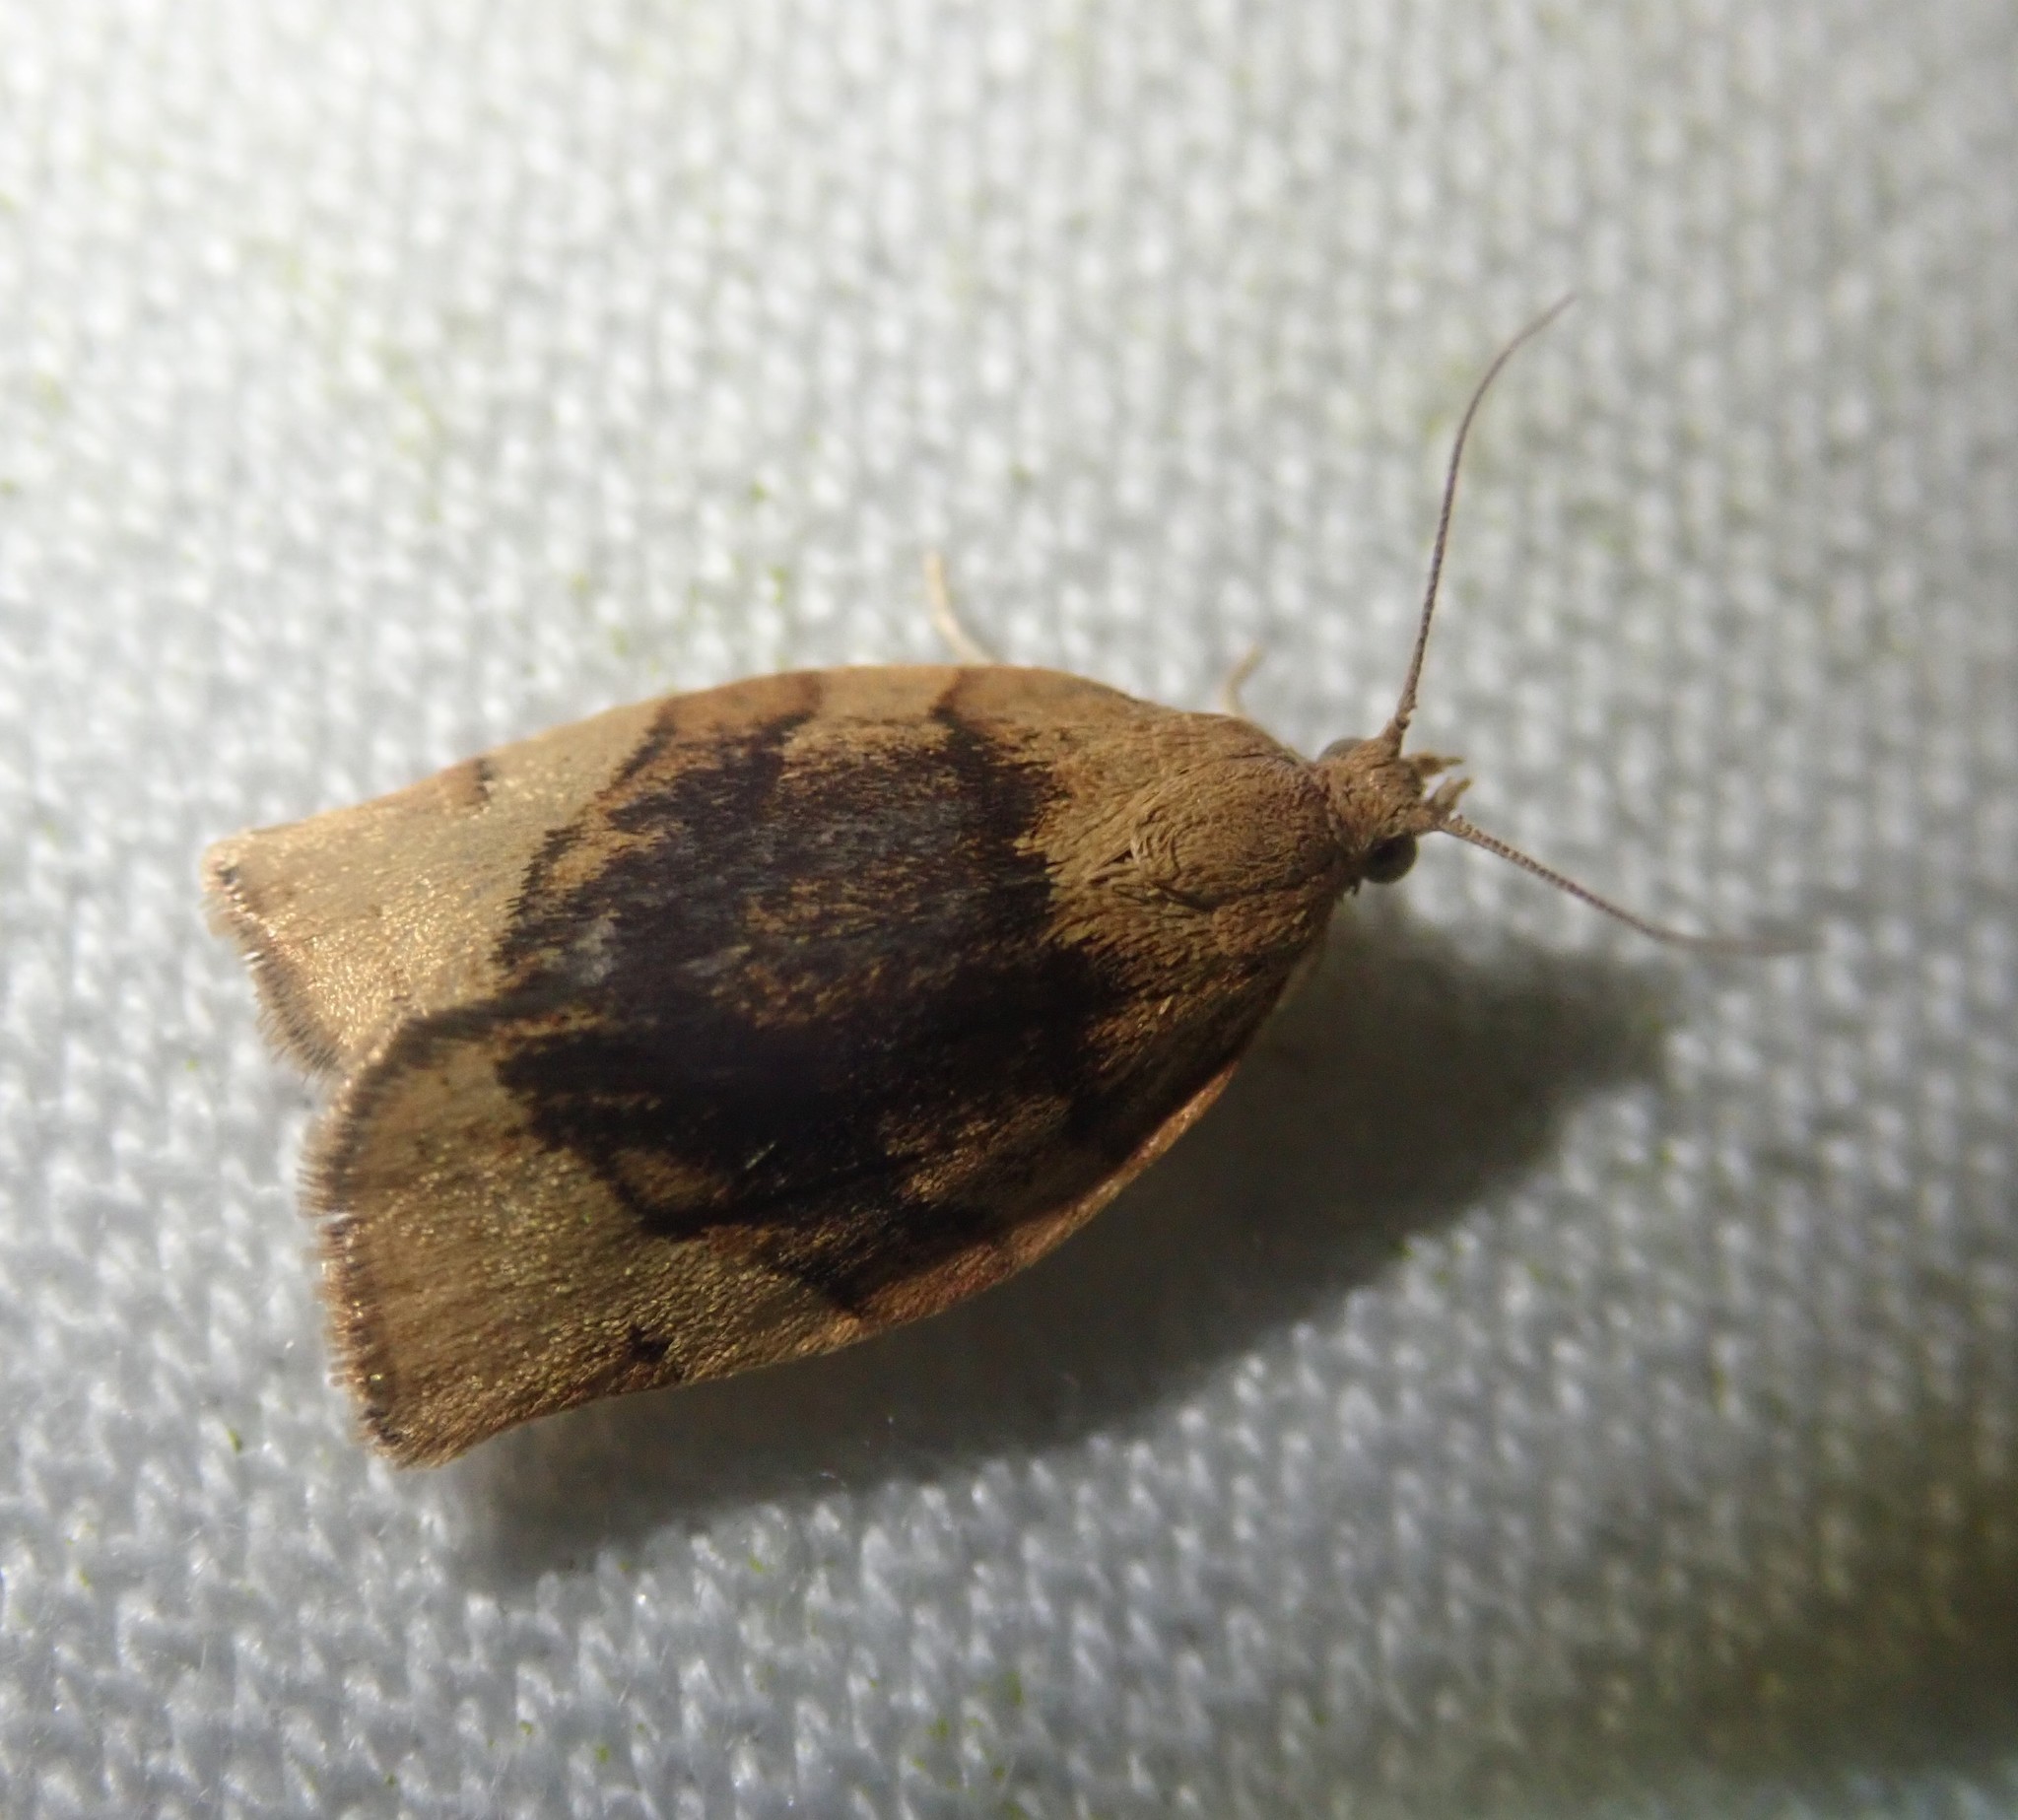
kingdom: Animalia
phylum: Arthropoda
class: Insecta
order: Lepidoptera
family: Tortricidae
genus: Pandemis
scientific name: Pandemis cerasana
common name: Barred fruit-tree tortrix
